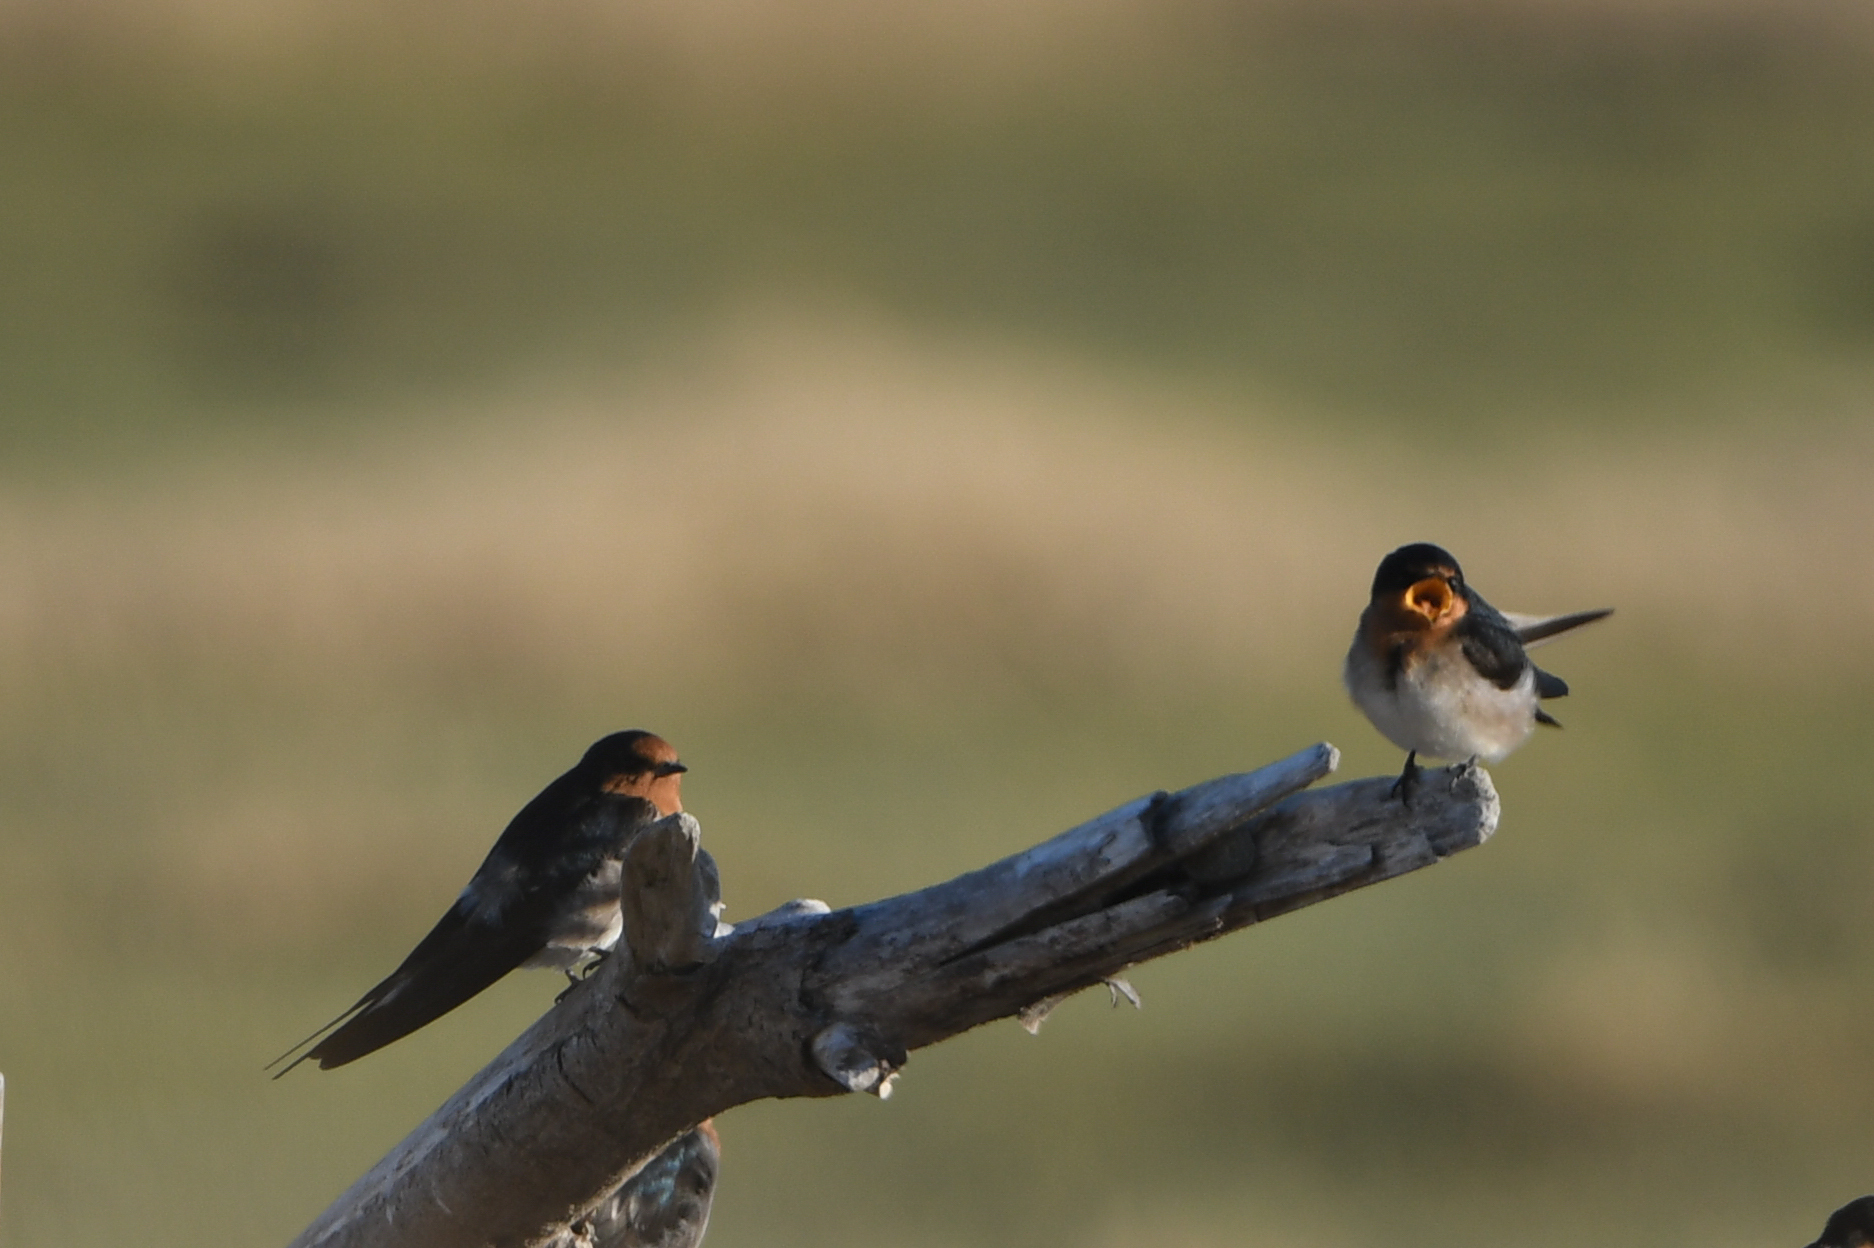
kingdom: Animalia
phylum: Chordata
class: Aves
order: Passeriformes
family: Hirundinidae
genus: Hirundo
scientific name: Hirundo neoxena
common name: Welcome swallow
